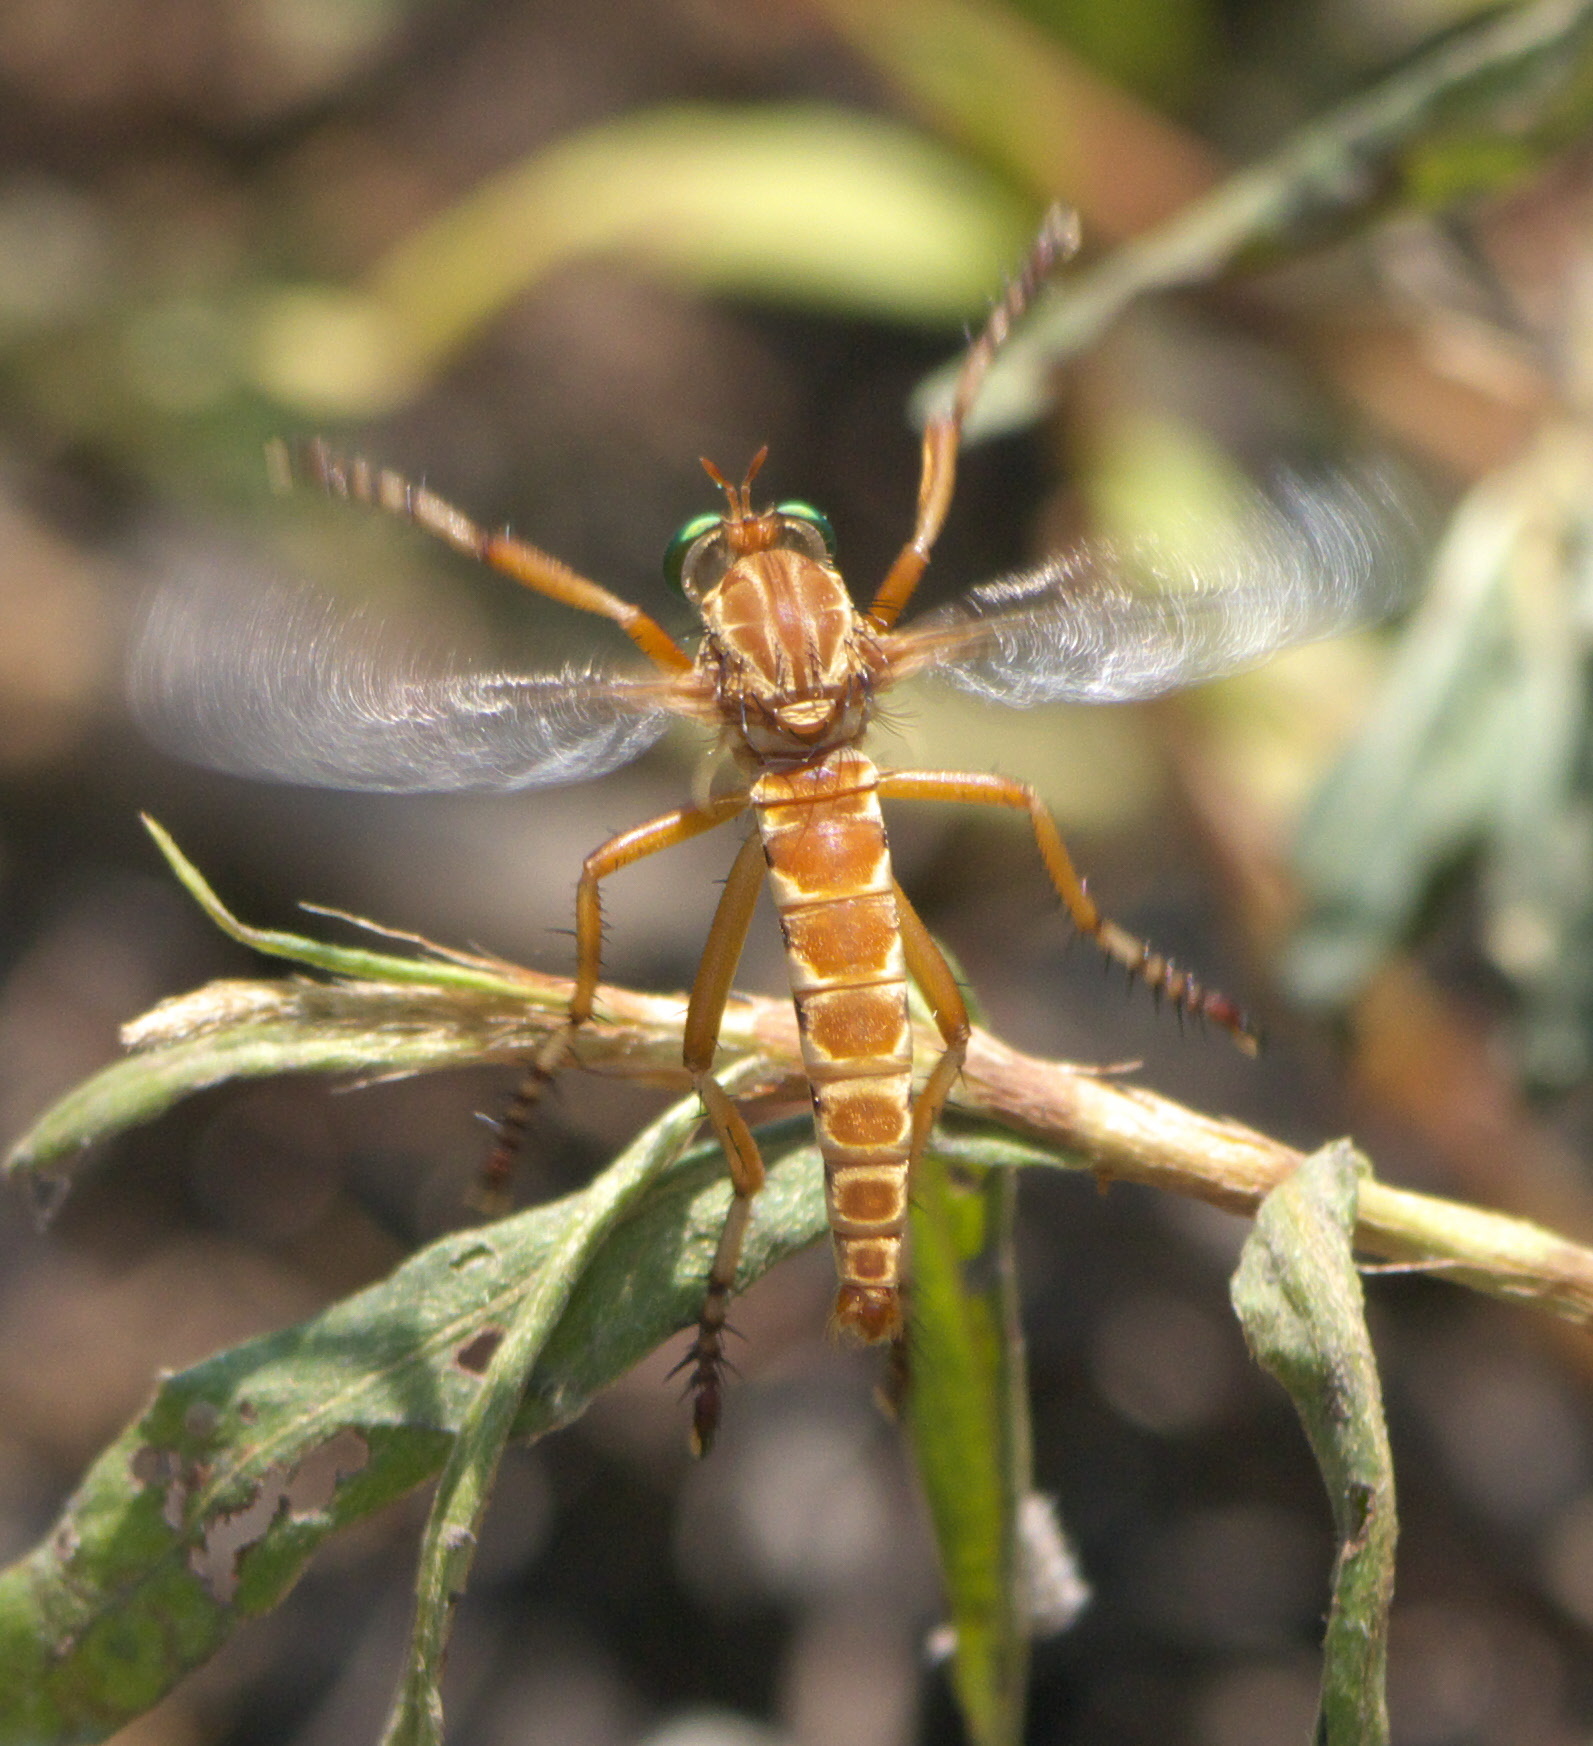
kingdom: Animalia
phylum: Arthropoda
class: Insecta
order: Diptera
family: Asilidae
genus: Diogmites
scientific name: Diogmites angustipennis
